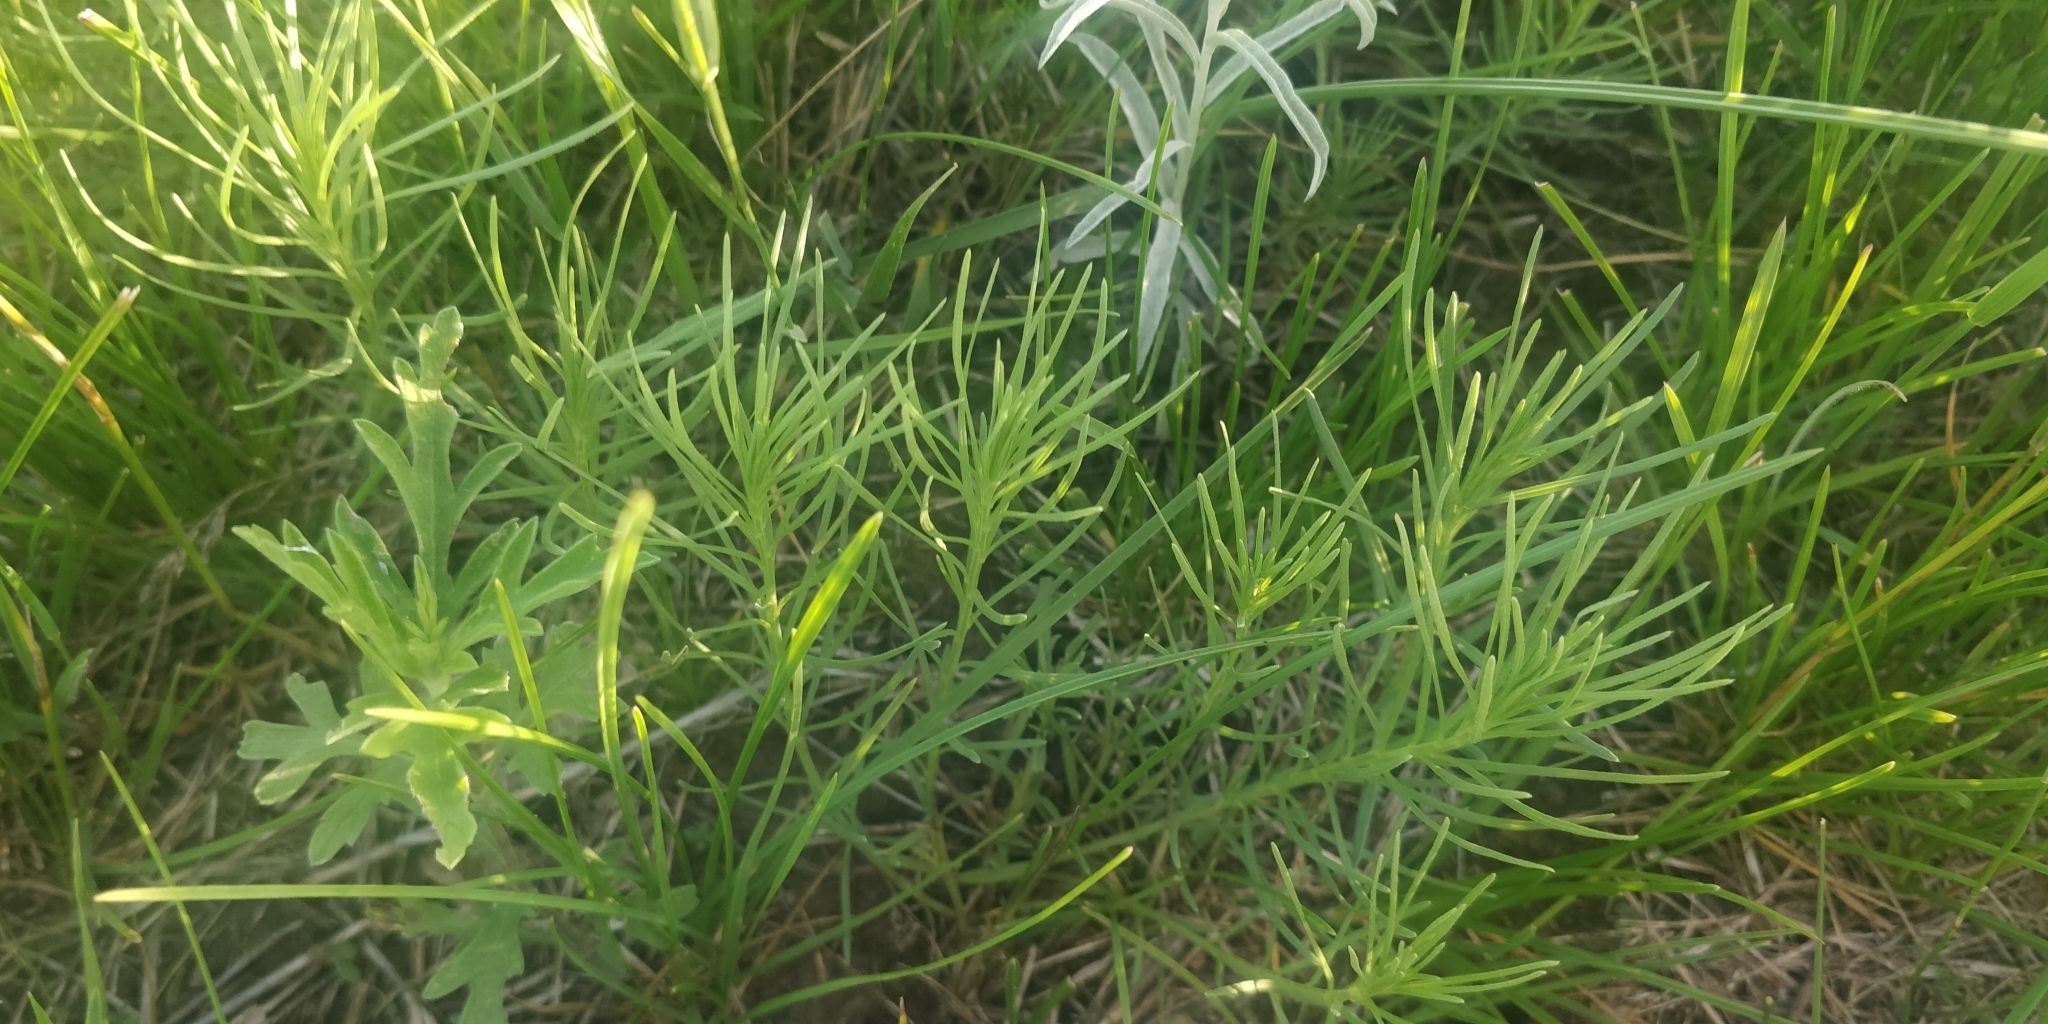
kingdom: Plantae
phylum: Tracheophyta
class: Magnoliopsida
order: Gentianales
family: Apocynaceae
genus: Asclepias
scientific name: Asclepias pumila
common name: Dwarf milkweed
